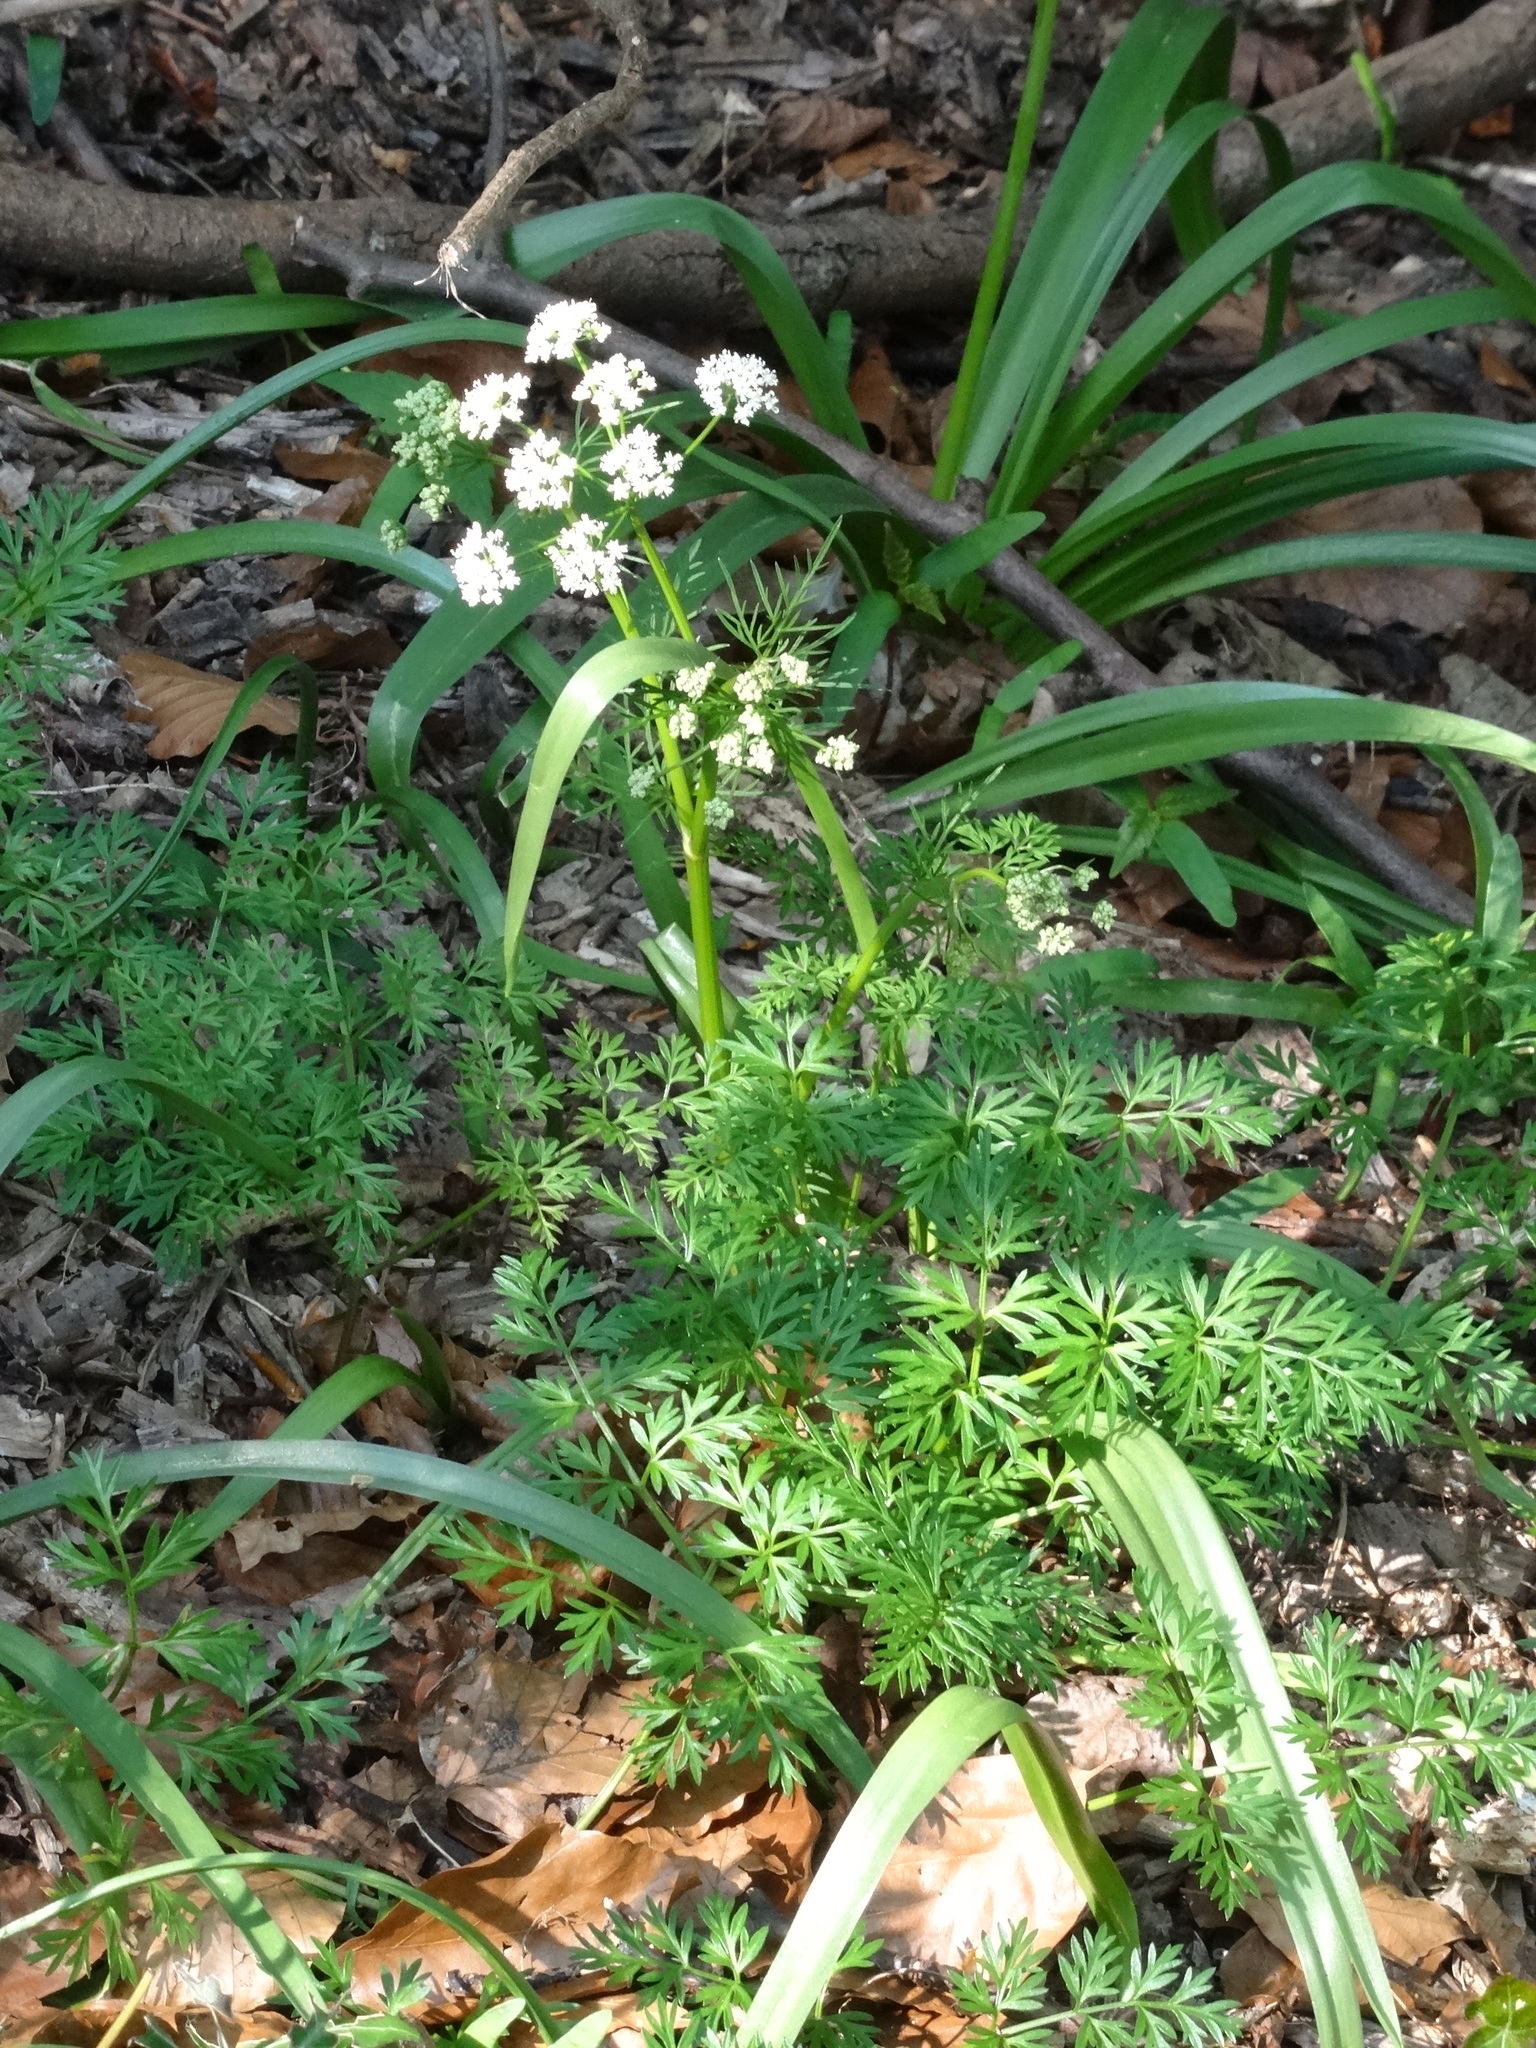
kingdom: Plantae
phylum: Tracheophyta
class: Magnoliopsida
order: Apiales
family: Apiaceae
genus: Conopodium
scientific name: Conopodium majus
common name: Pignut
